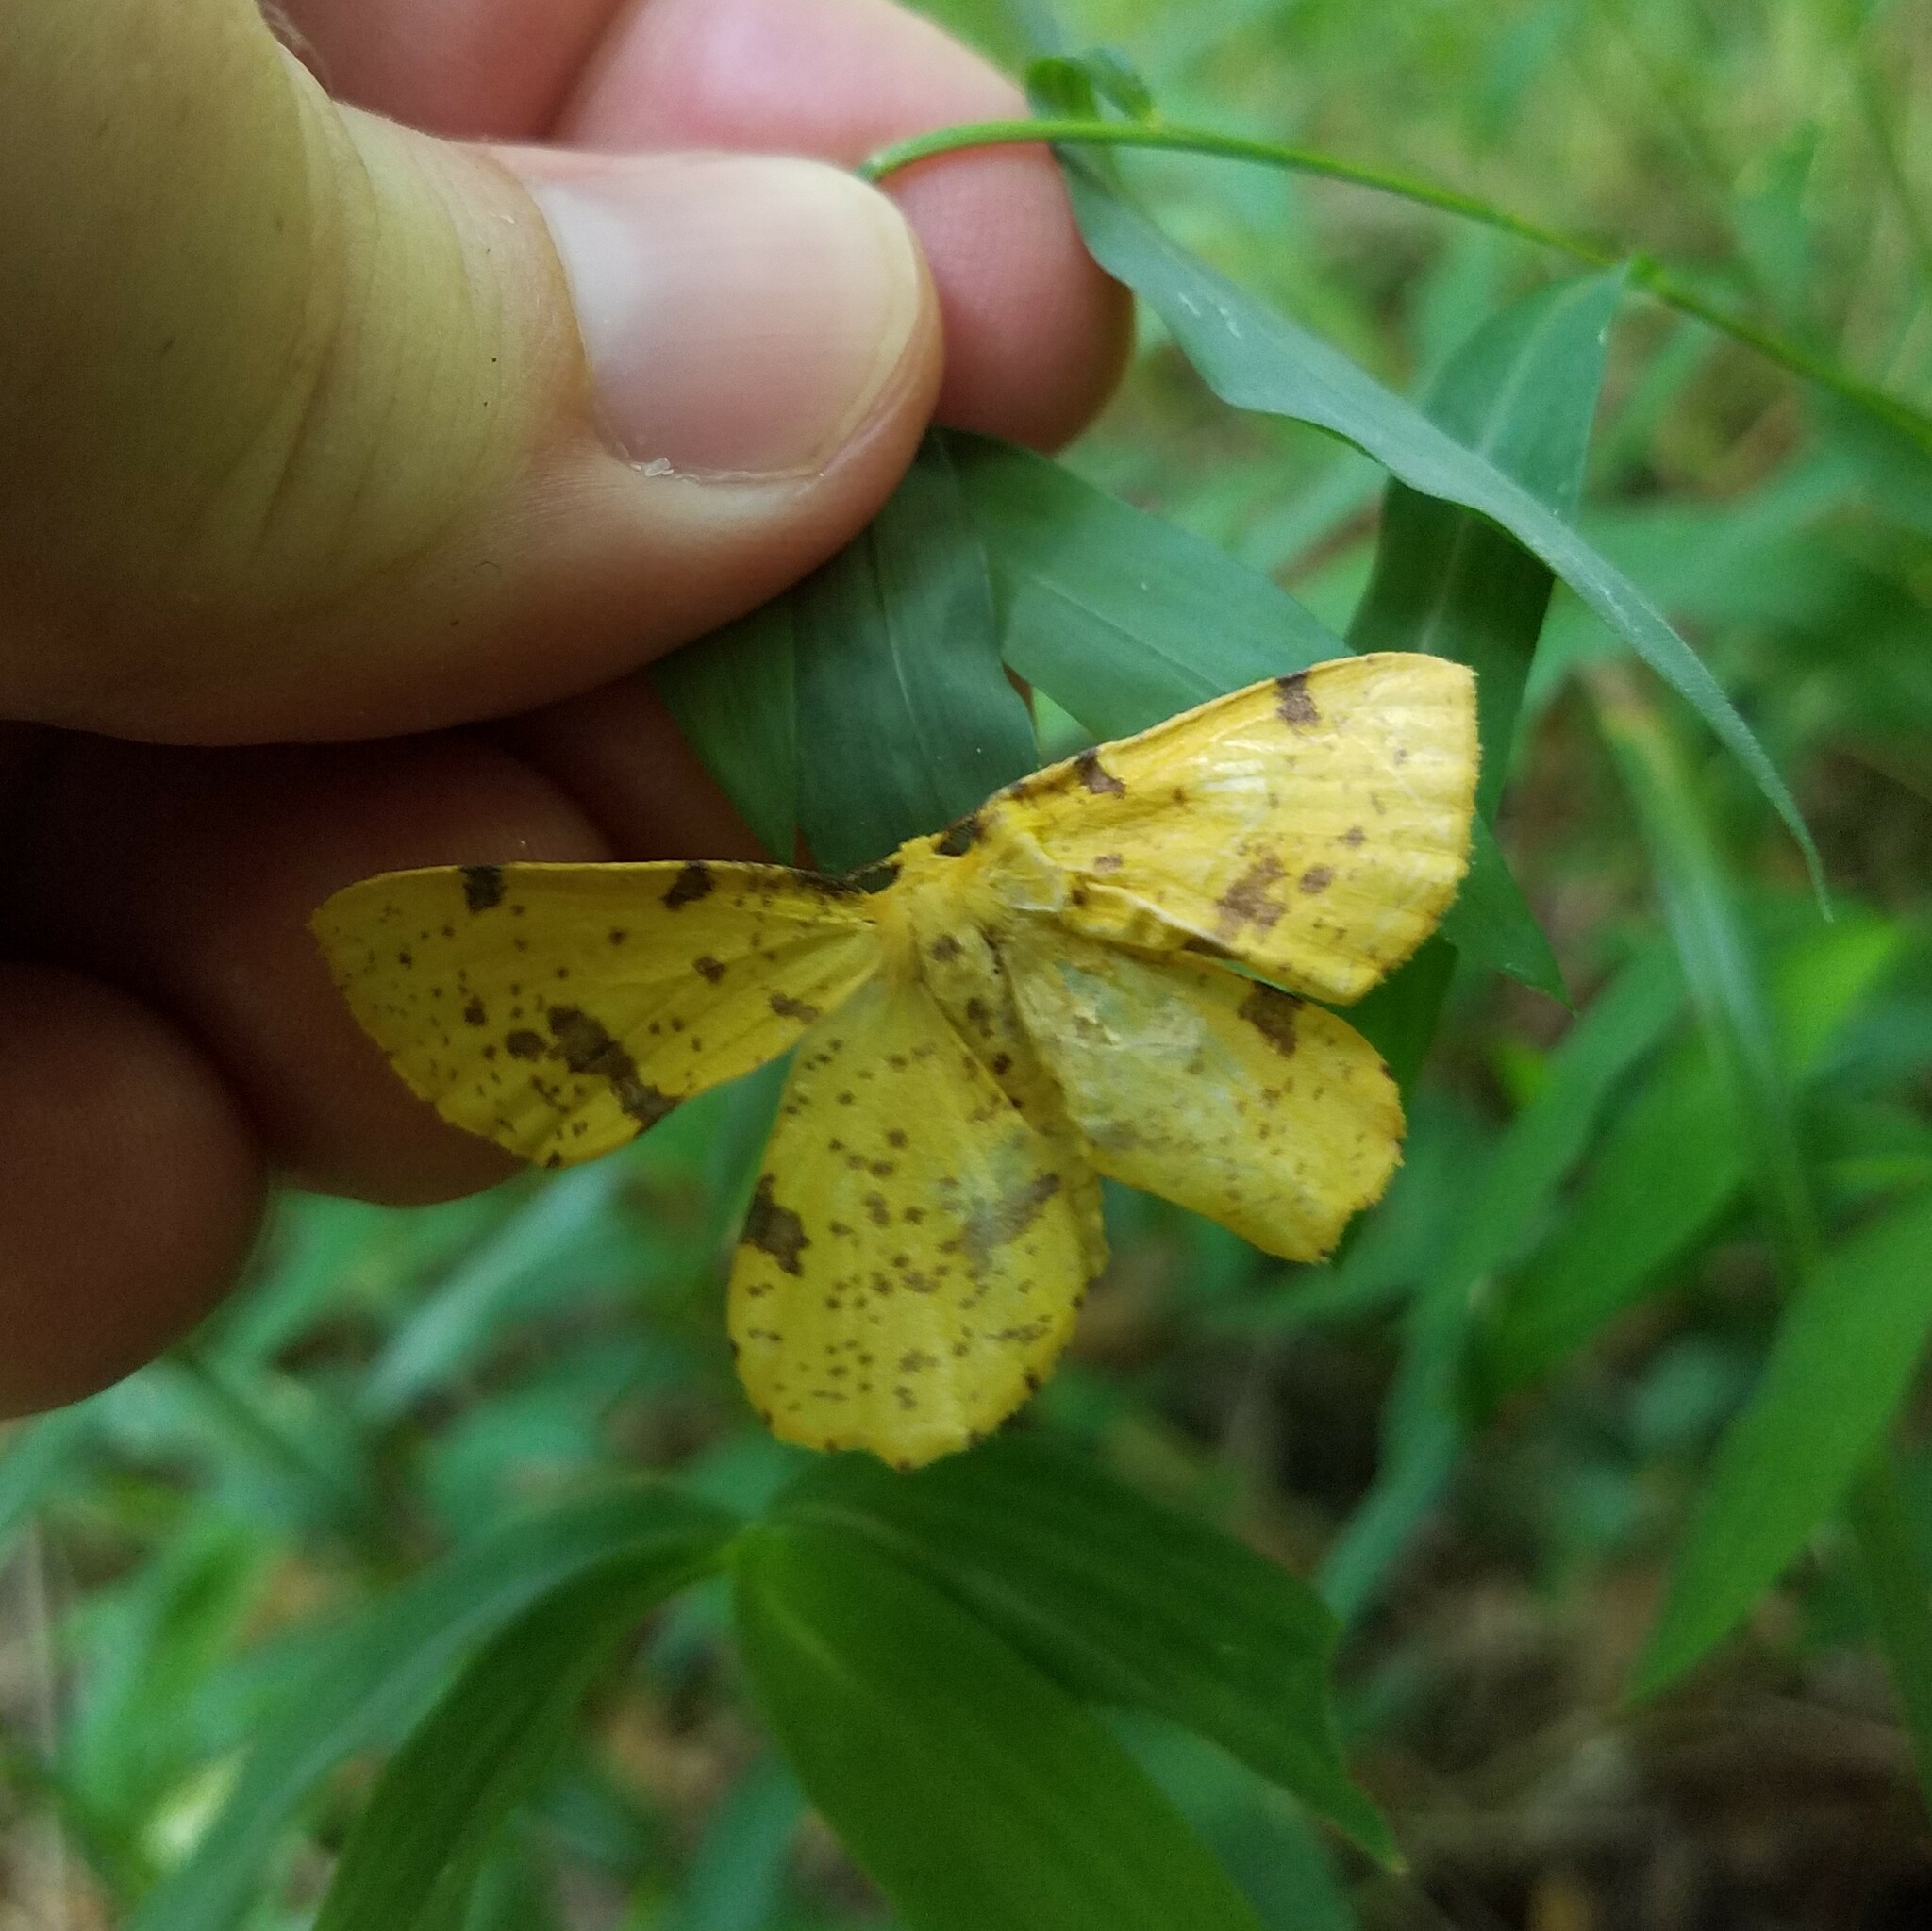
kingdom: Animalia
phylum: Arthropoda
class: Insecta
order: Lepidoptera
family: Geometridae
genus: Xanthotype
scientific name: Xanthotype
